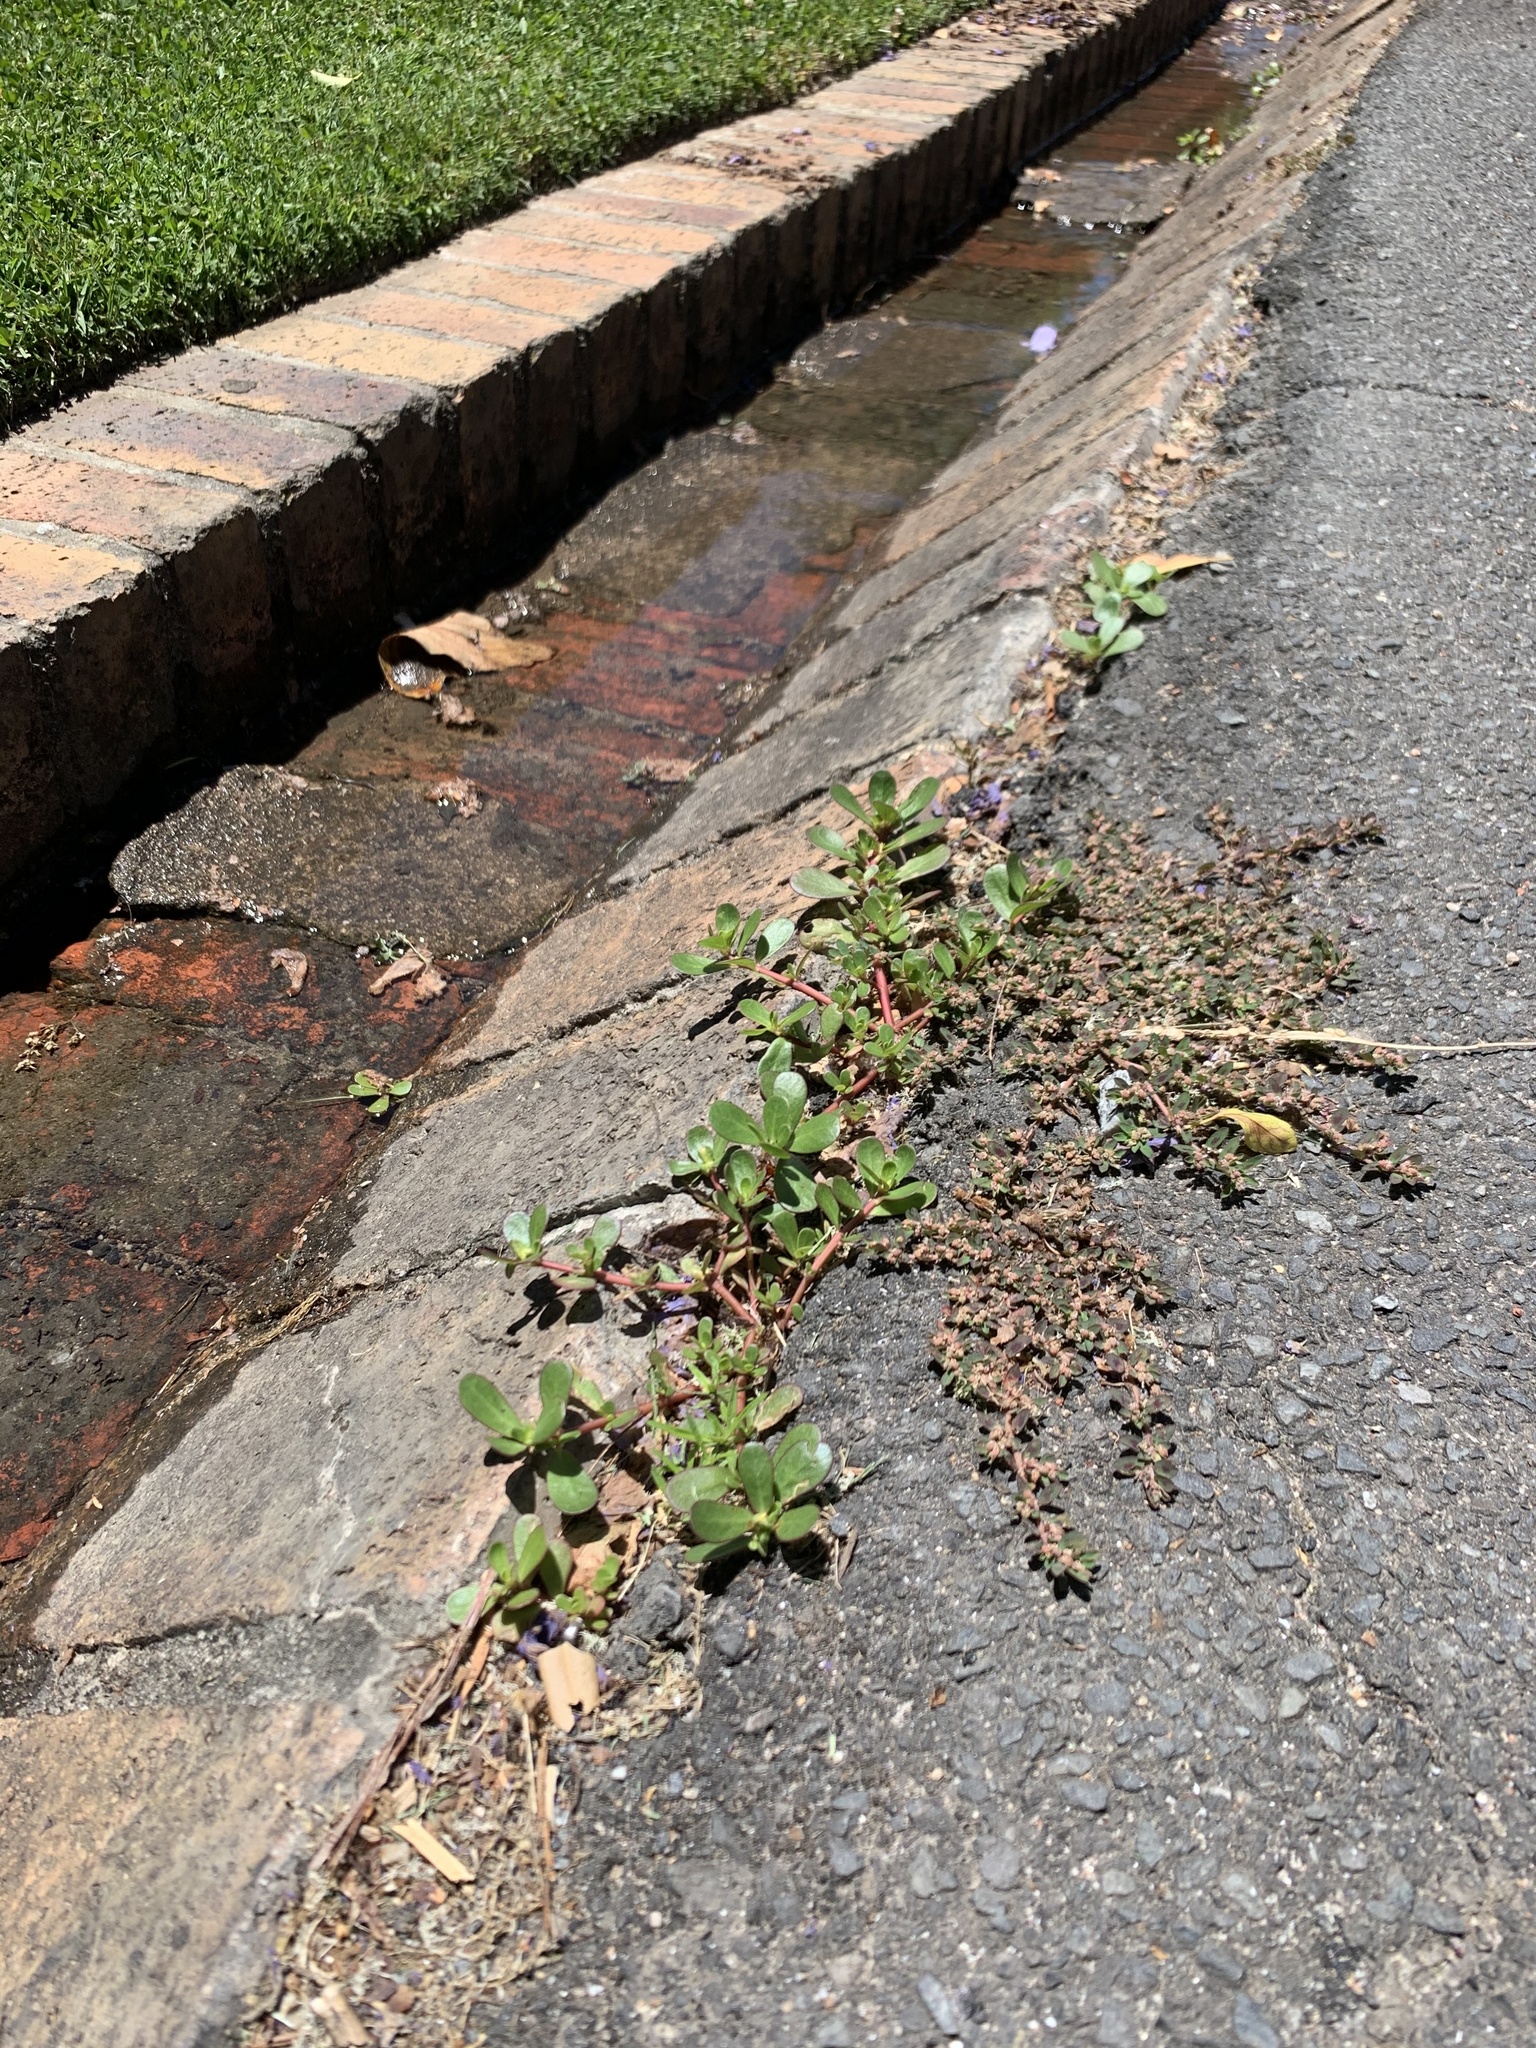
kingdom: Plantae
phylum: Tracheophyta
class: Magnoliopsida
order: Caryophyllales
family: Portulacaceae
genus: Portulaca
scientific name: Portulaca oleracea
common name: Common purslane
